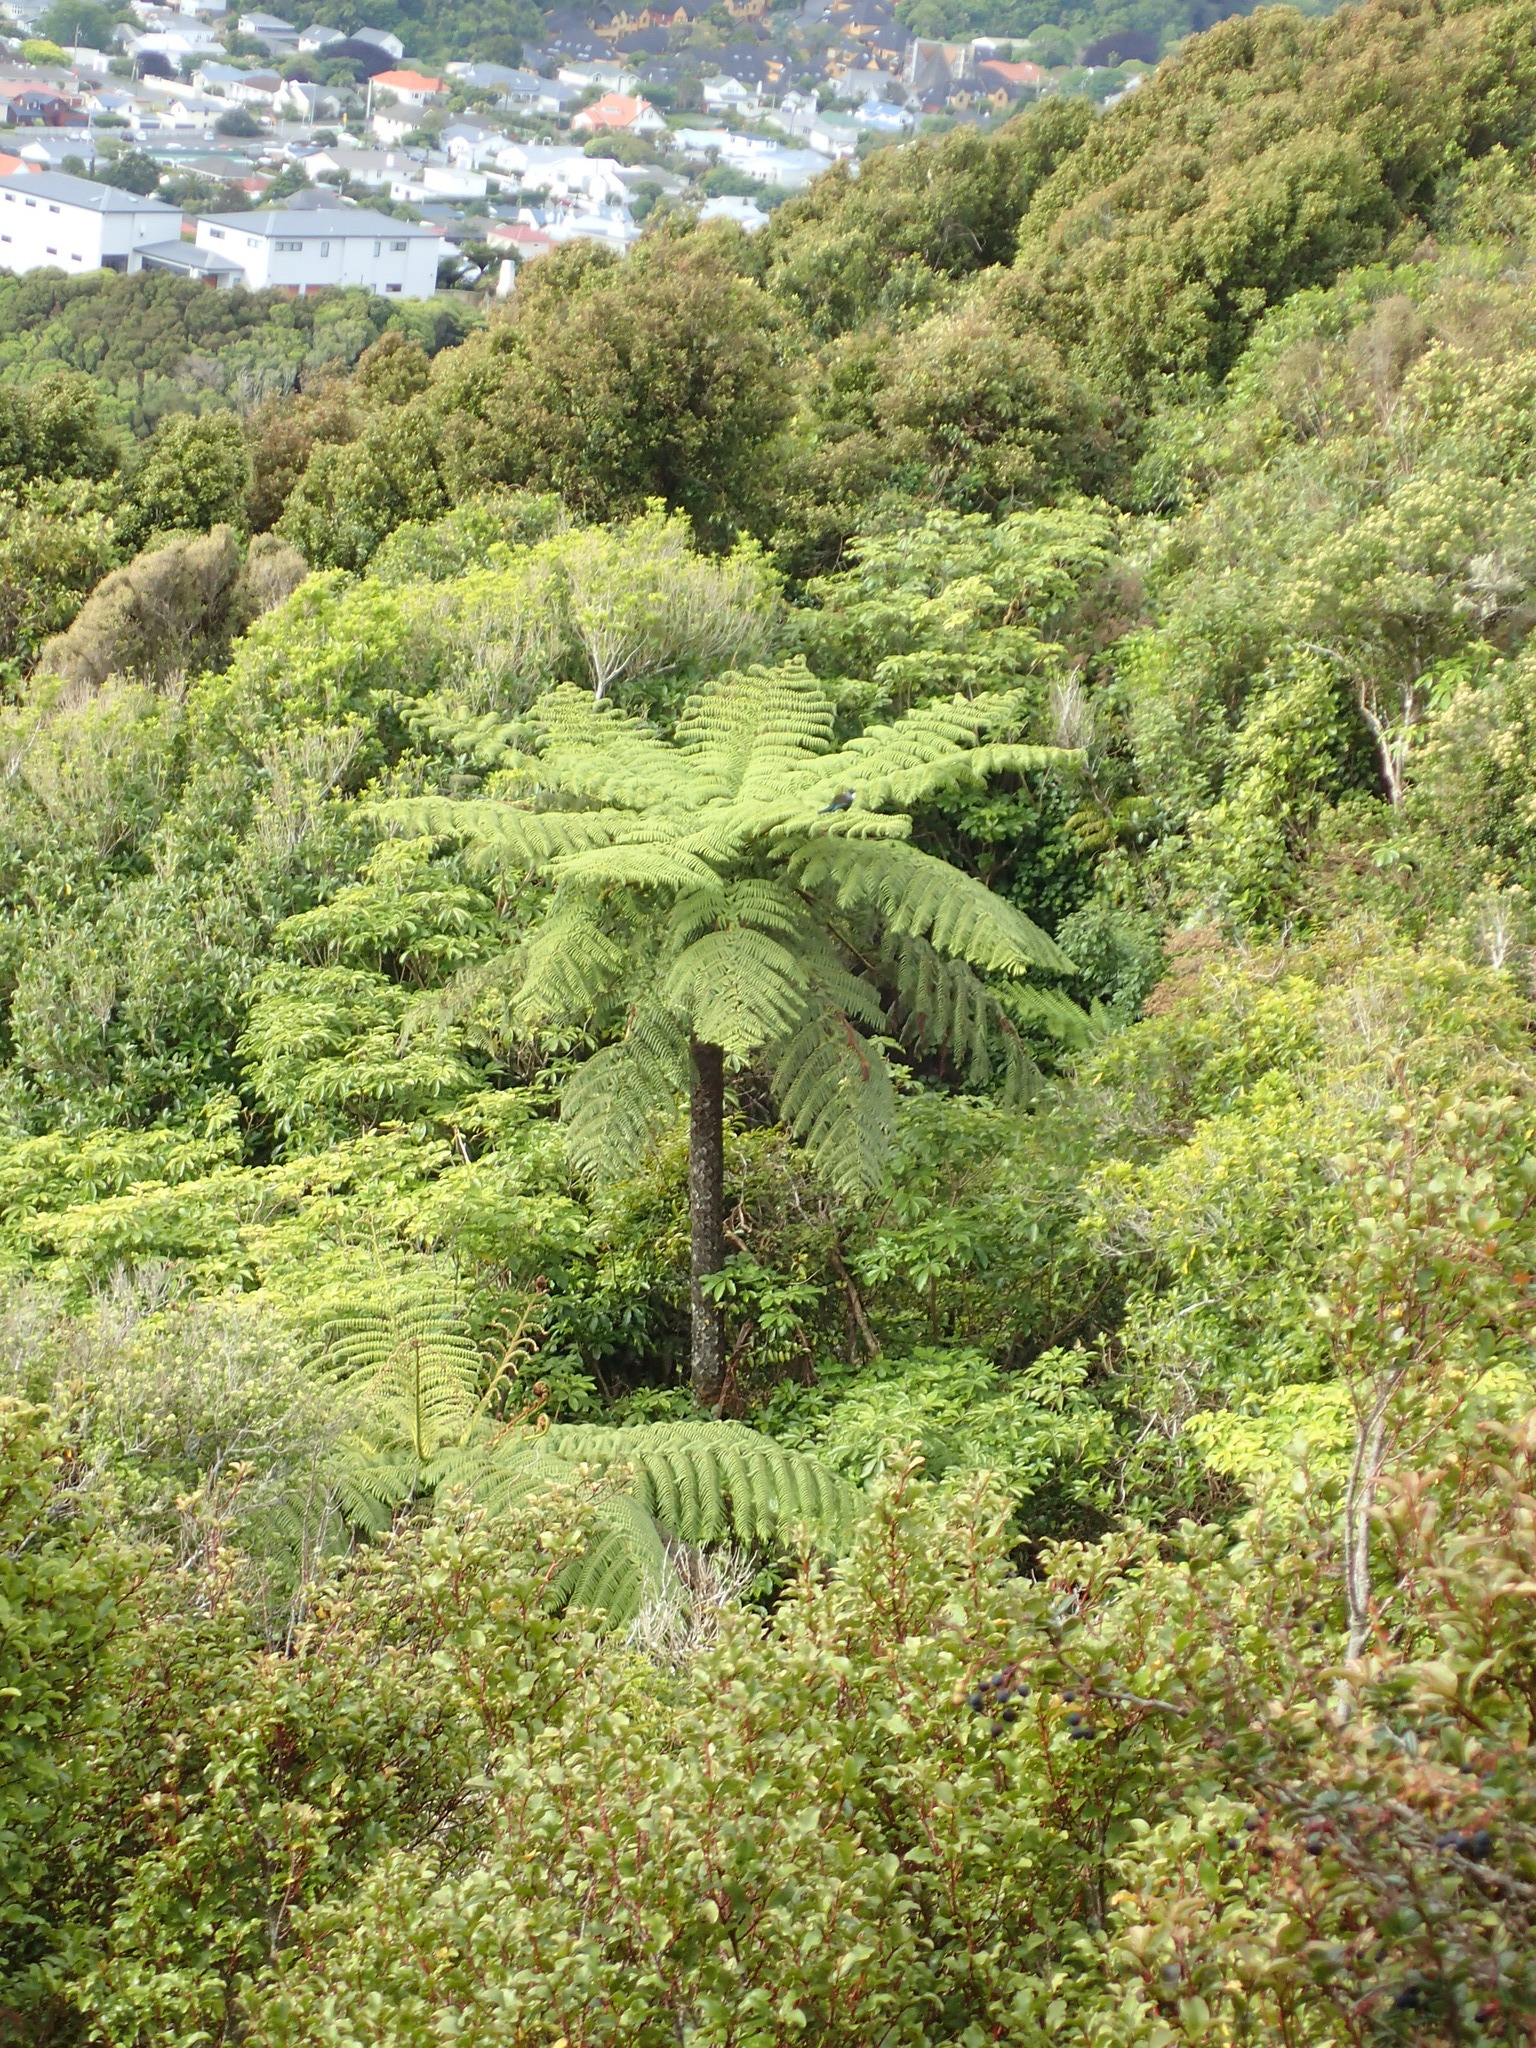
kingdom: Plantae
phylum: Tracheophyta
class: Polypodiopsida
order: Cyatheales
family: Cyatheaceae
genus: Sphaeropteris
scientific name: Sphaeropteris medullaris
